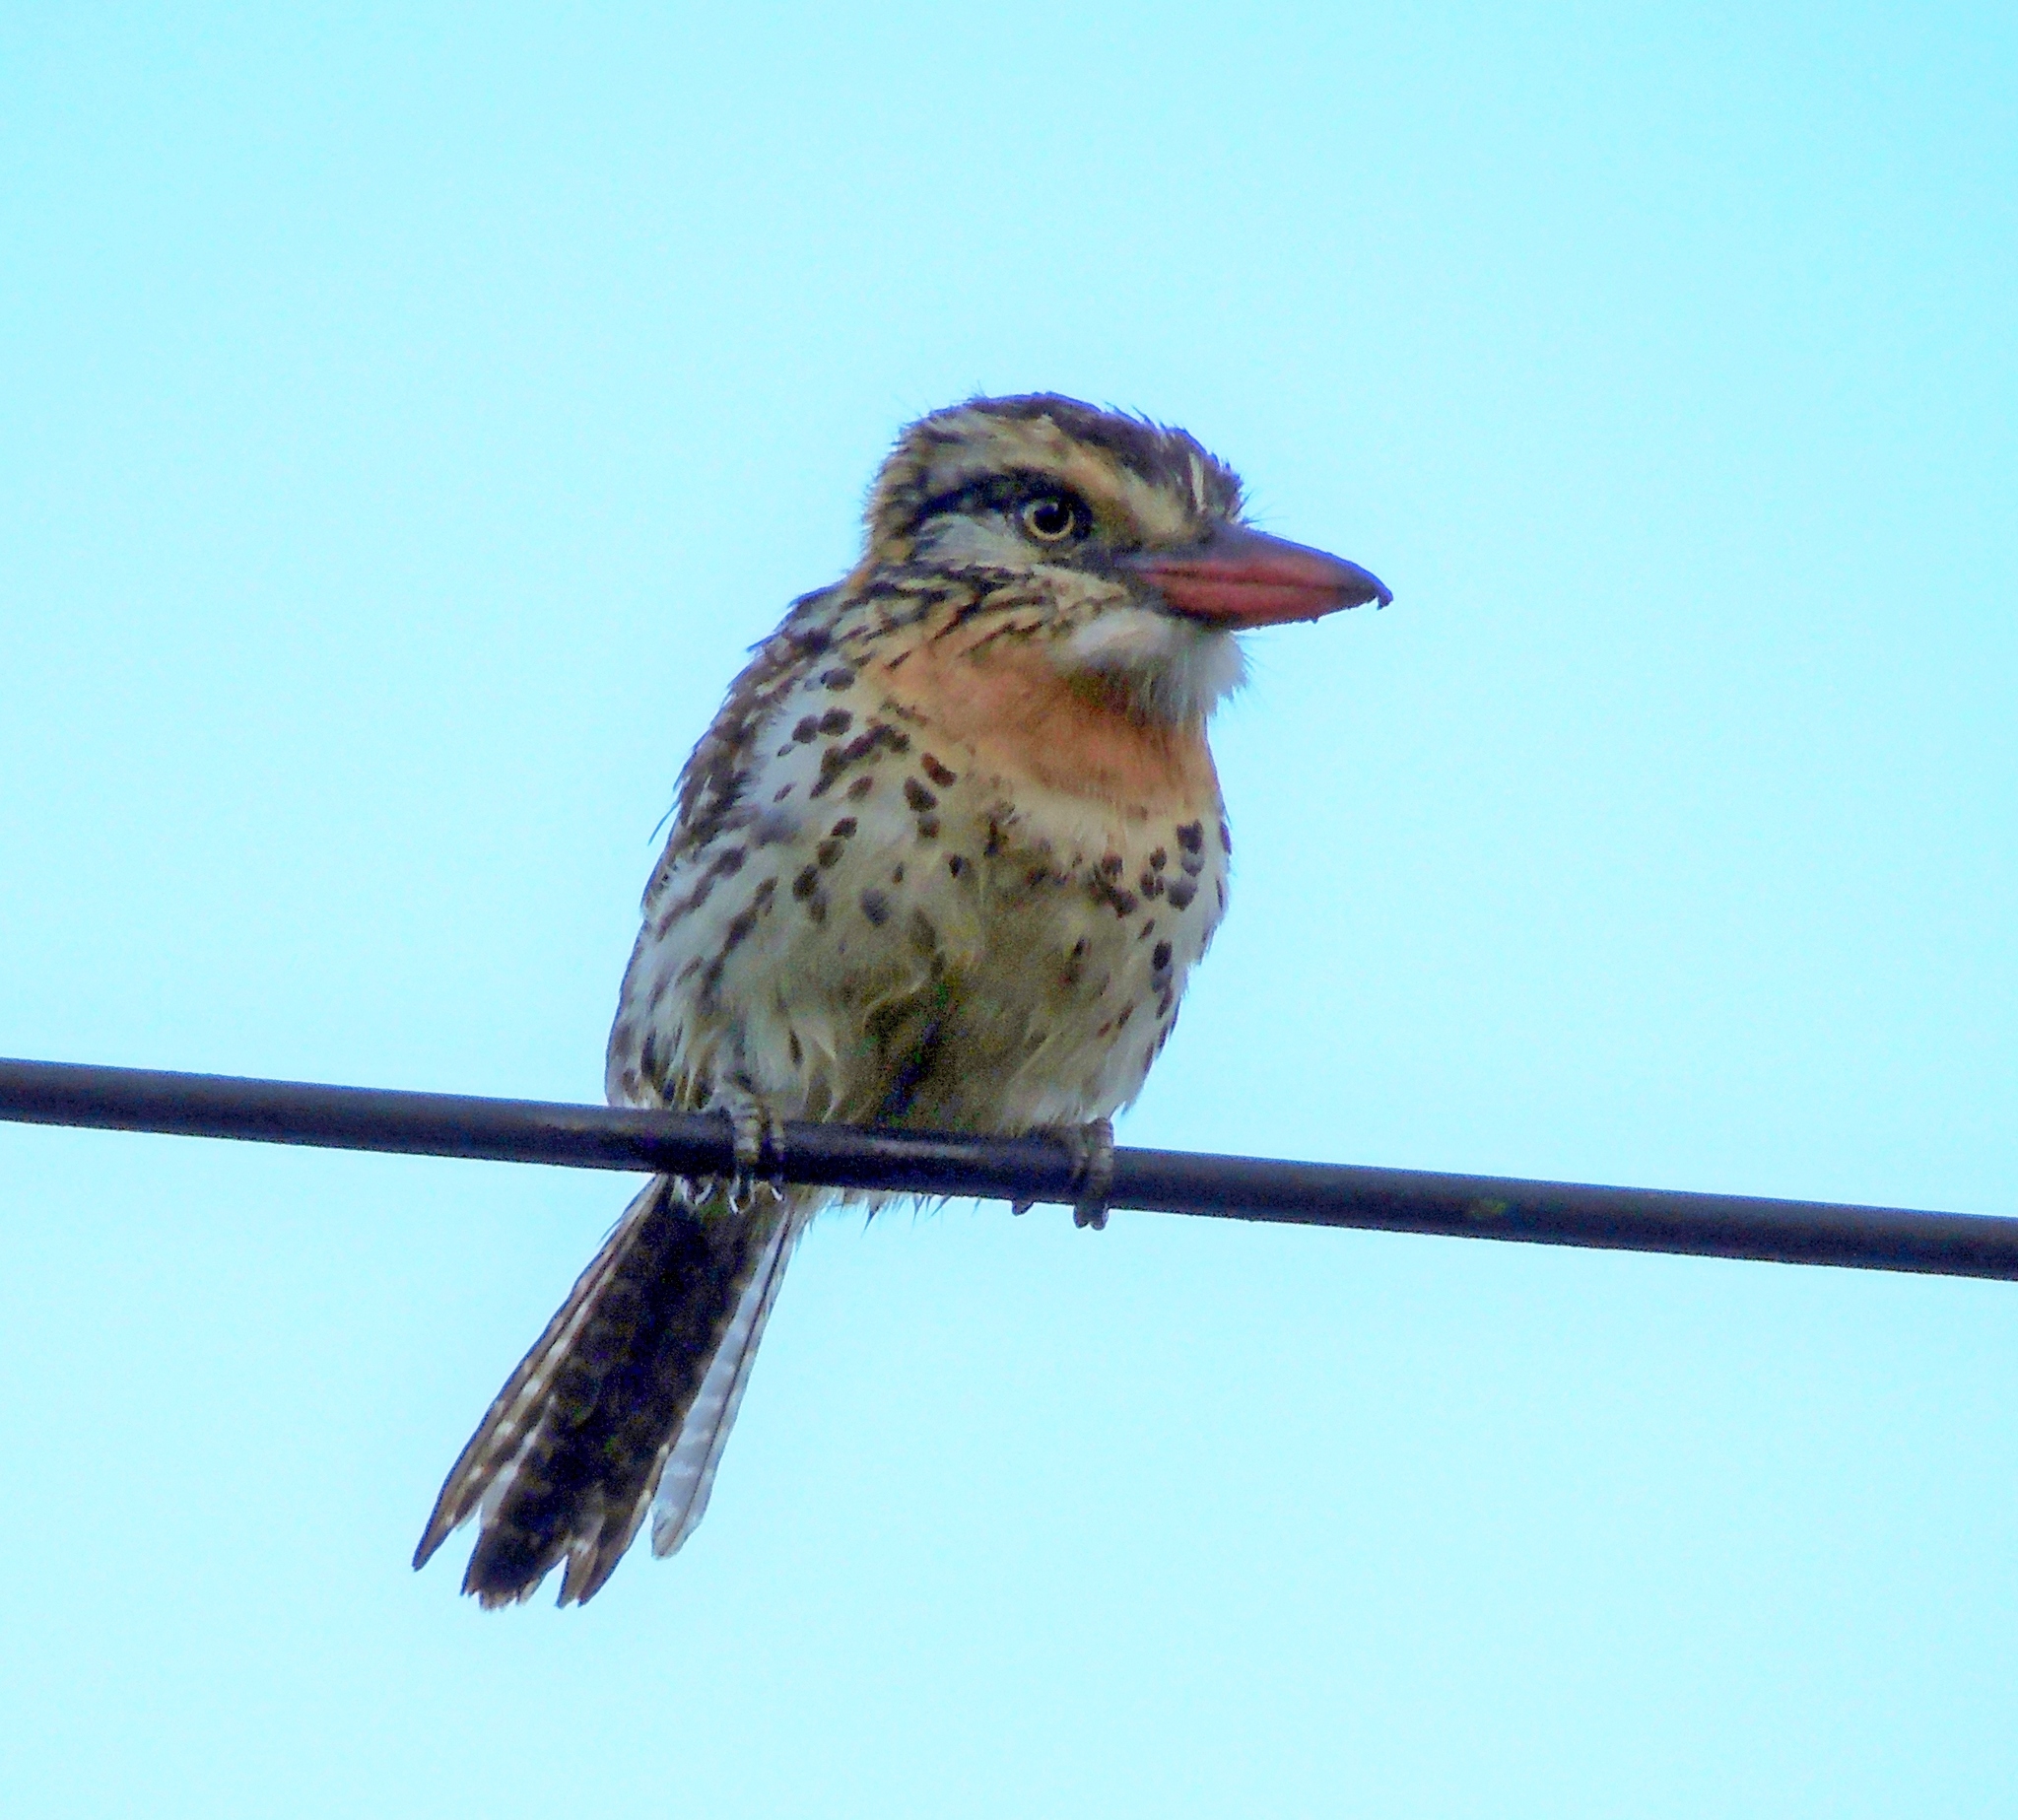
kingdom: Animalia
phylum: Chordata
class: Aves
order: Piciformes
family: Bucconidae
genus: Nystalus
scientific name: Nystalus maculatus
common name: Caatinga puffbird
